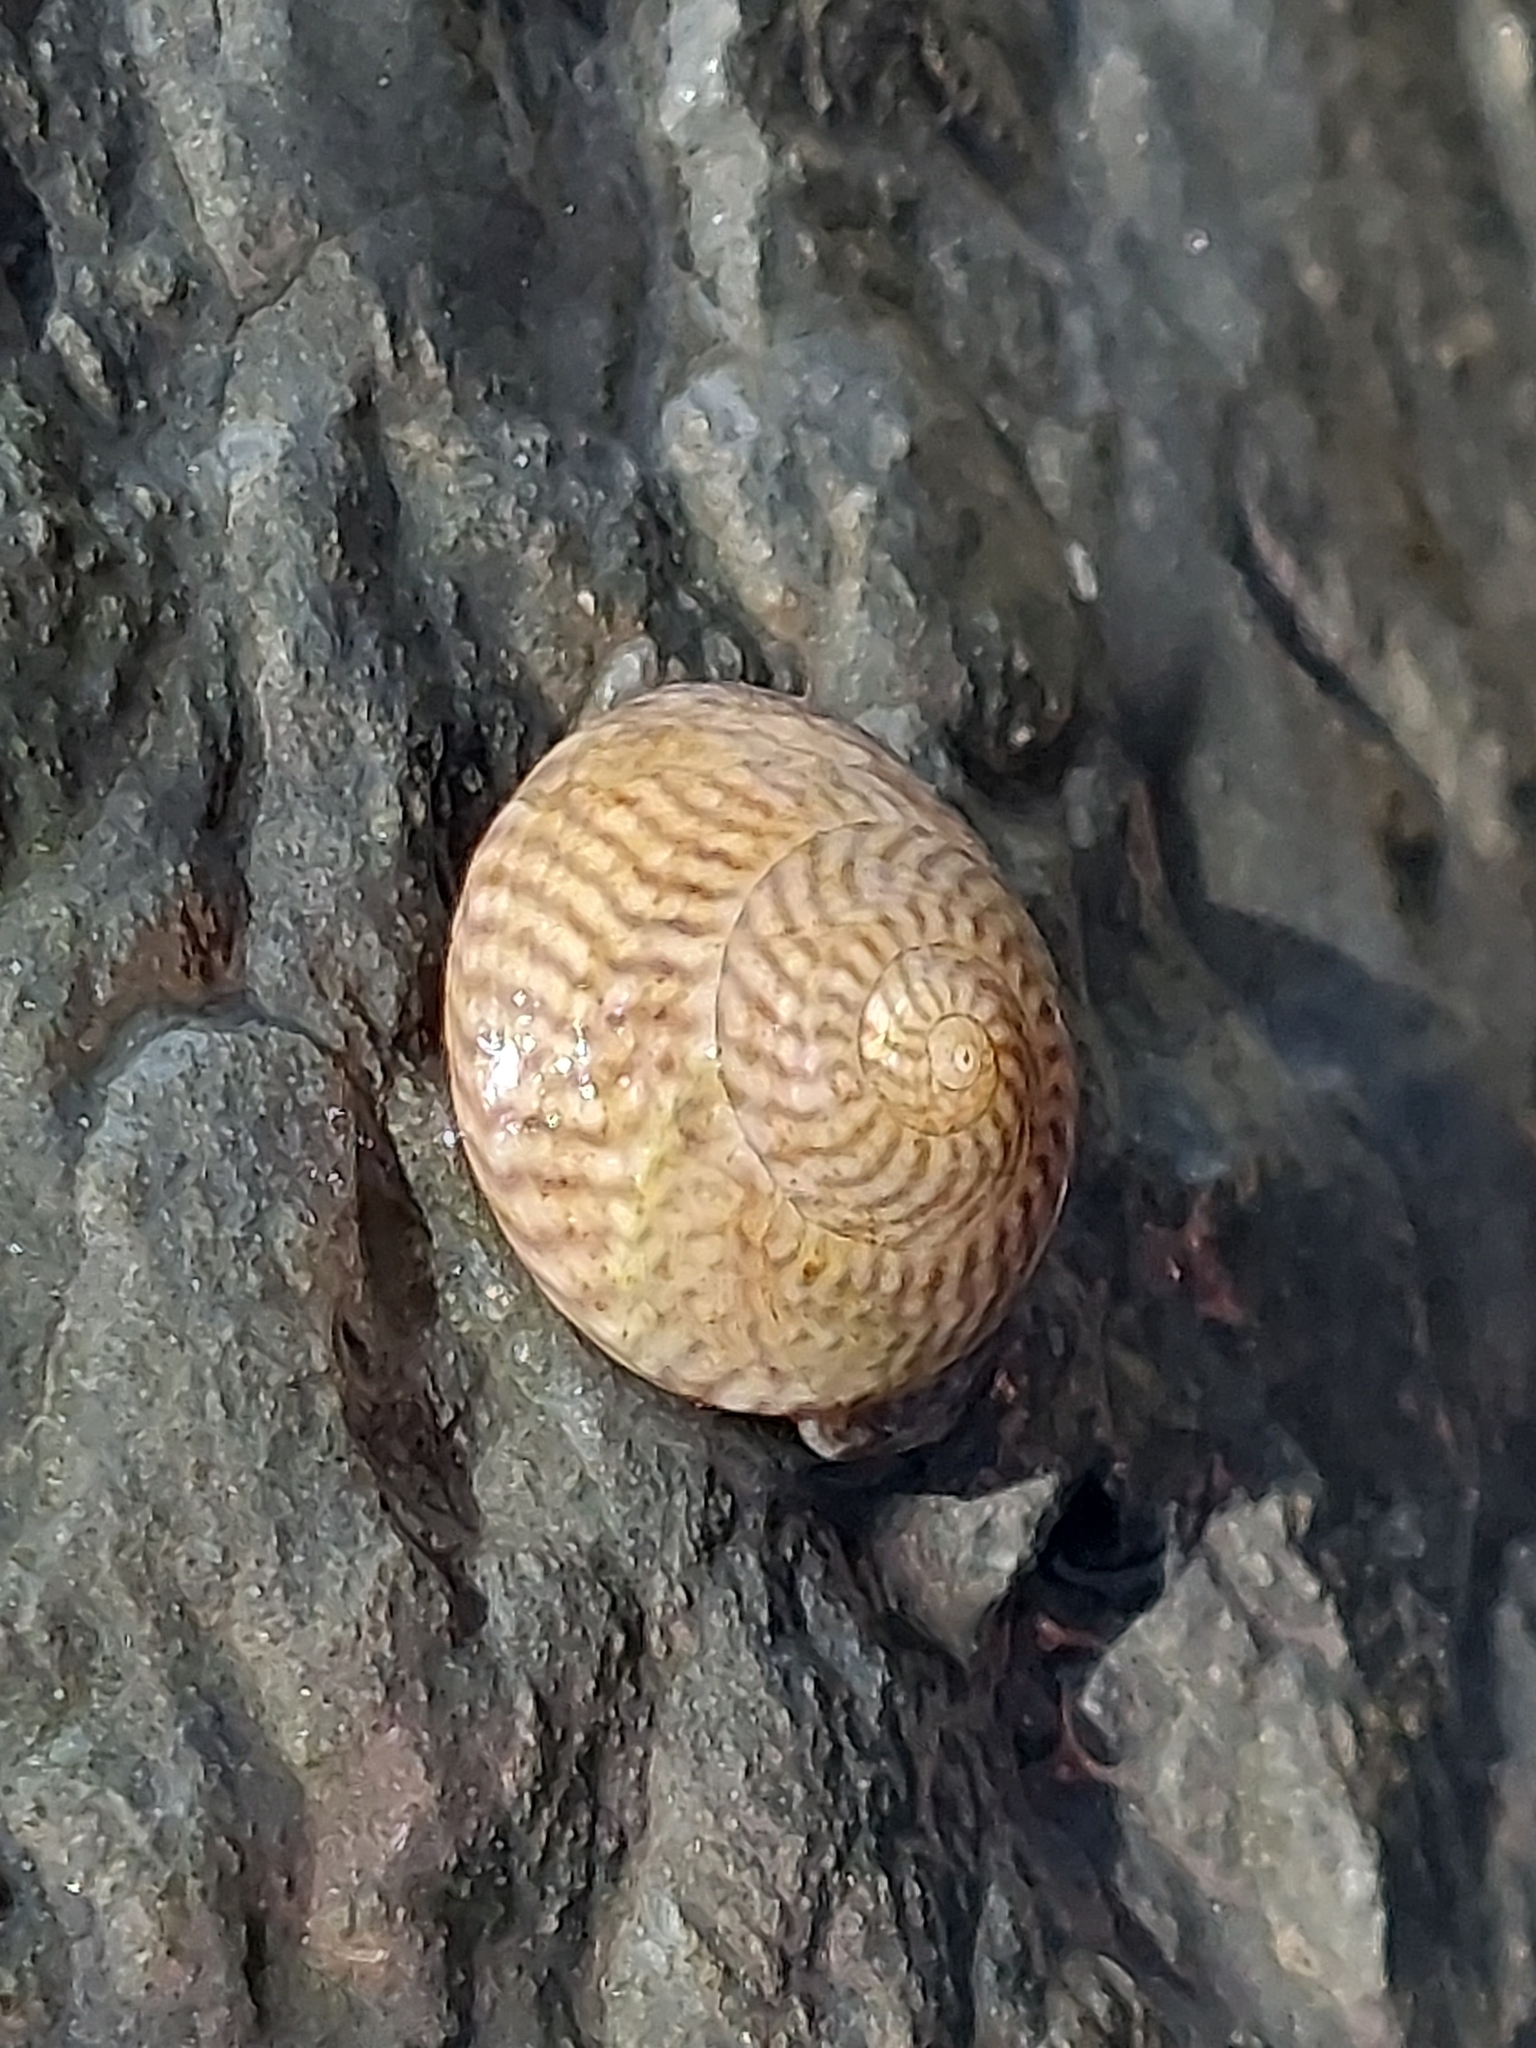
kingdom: Animalia
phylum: Mollusca
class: Gastropoda
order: Trochida
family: Trochidae
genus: Steromphala
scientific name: Steromphala cineraria
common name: Grey top shell
